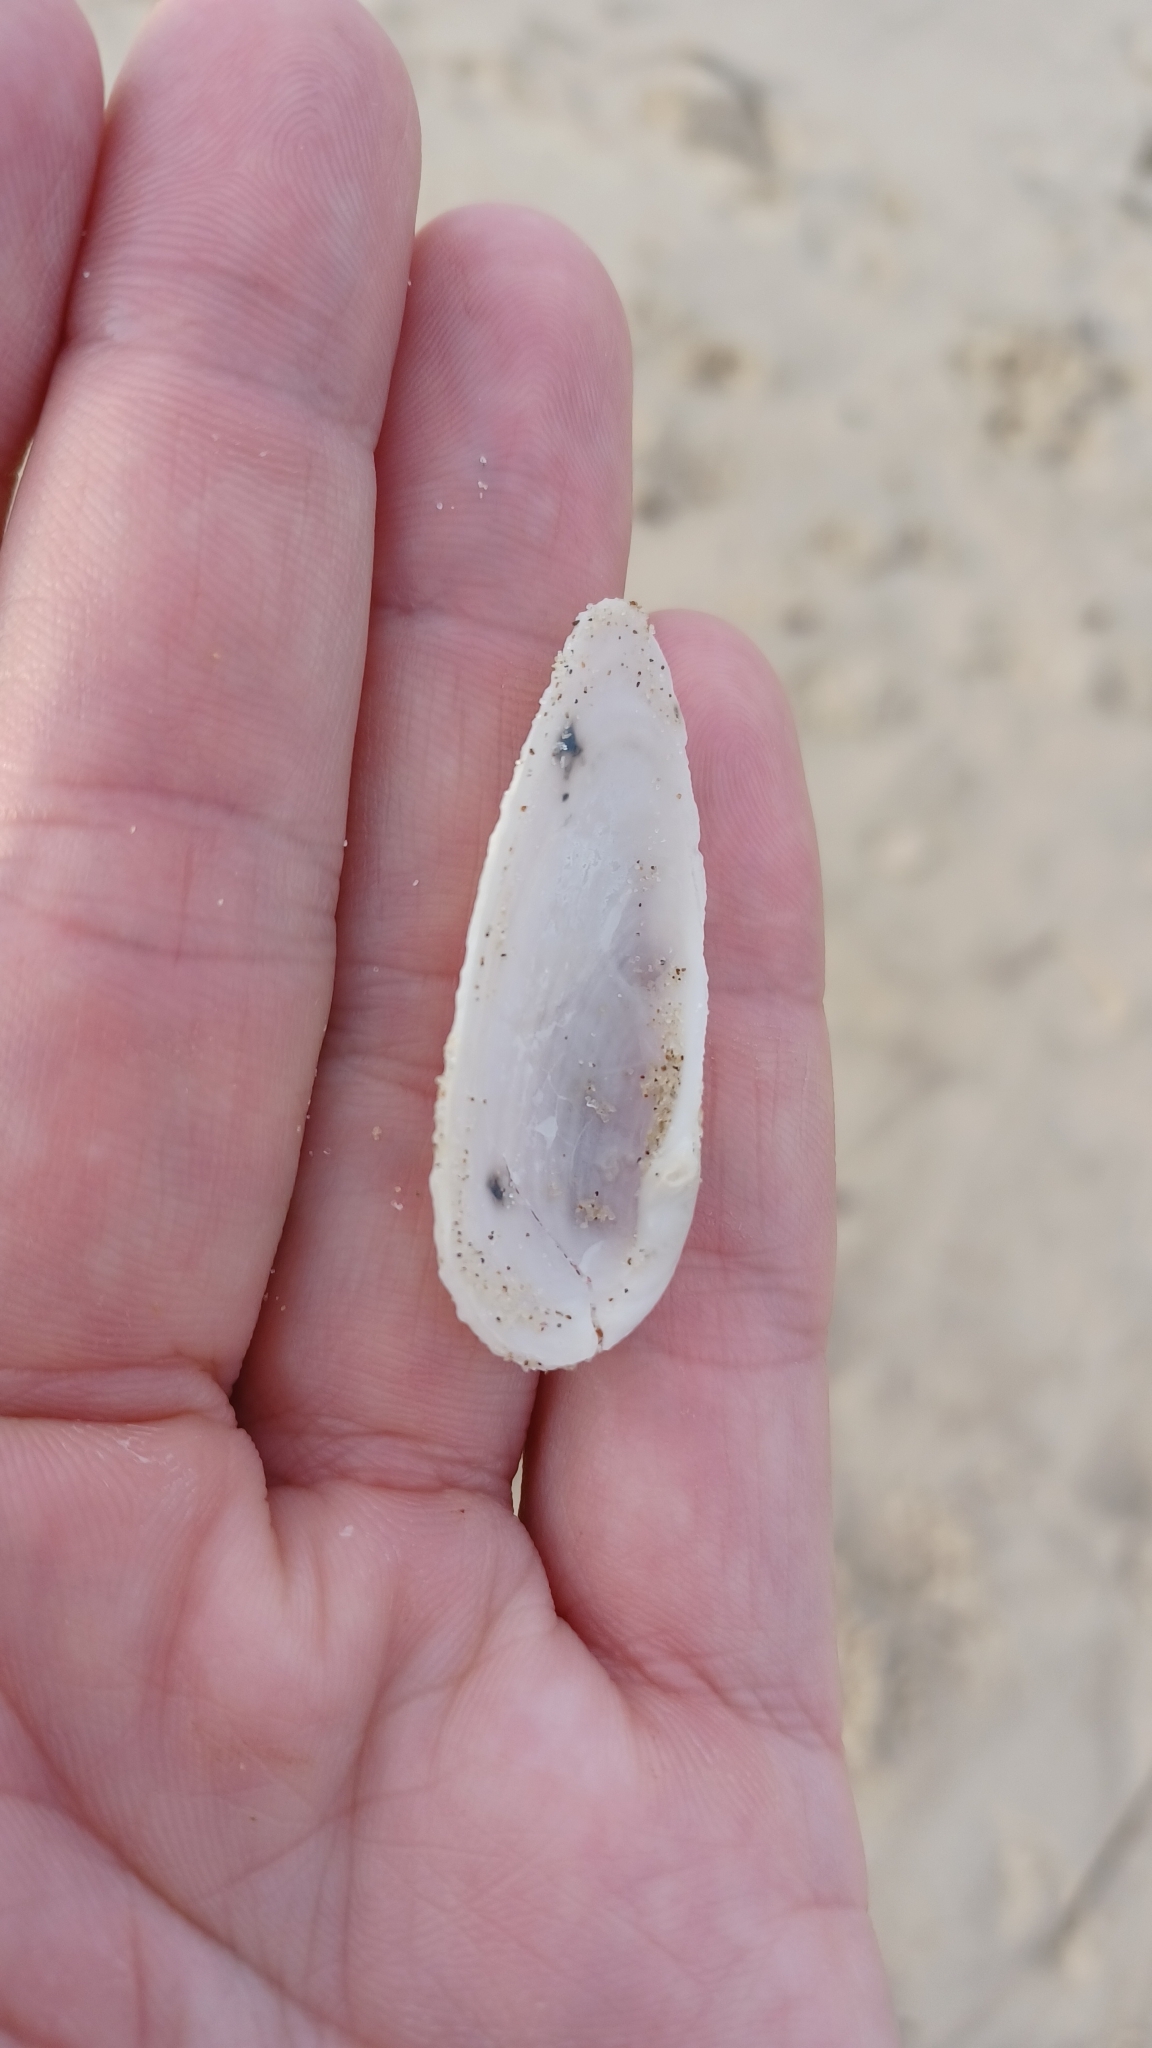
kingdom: Animalia
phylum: Mollusca
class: Bivalvia
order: Myida
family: Pholadidae
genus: Barnea
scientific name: Barnea australasiae
